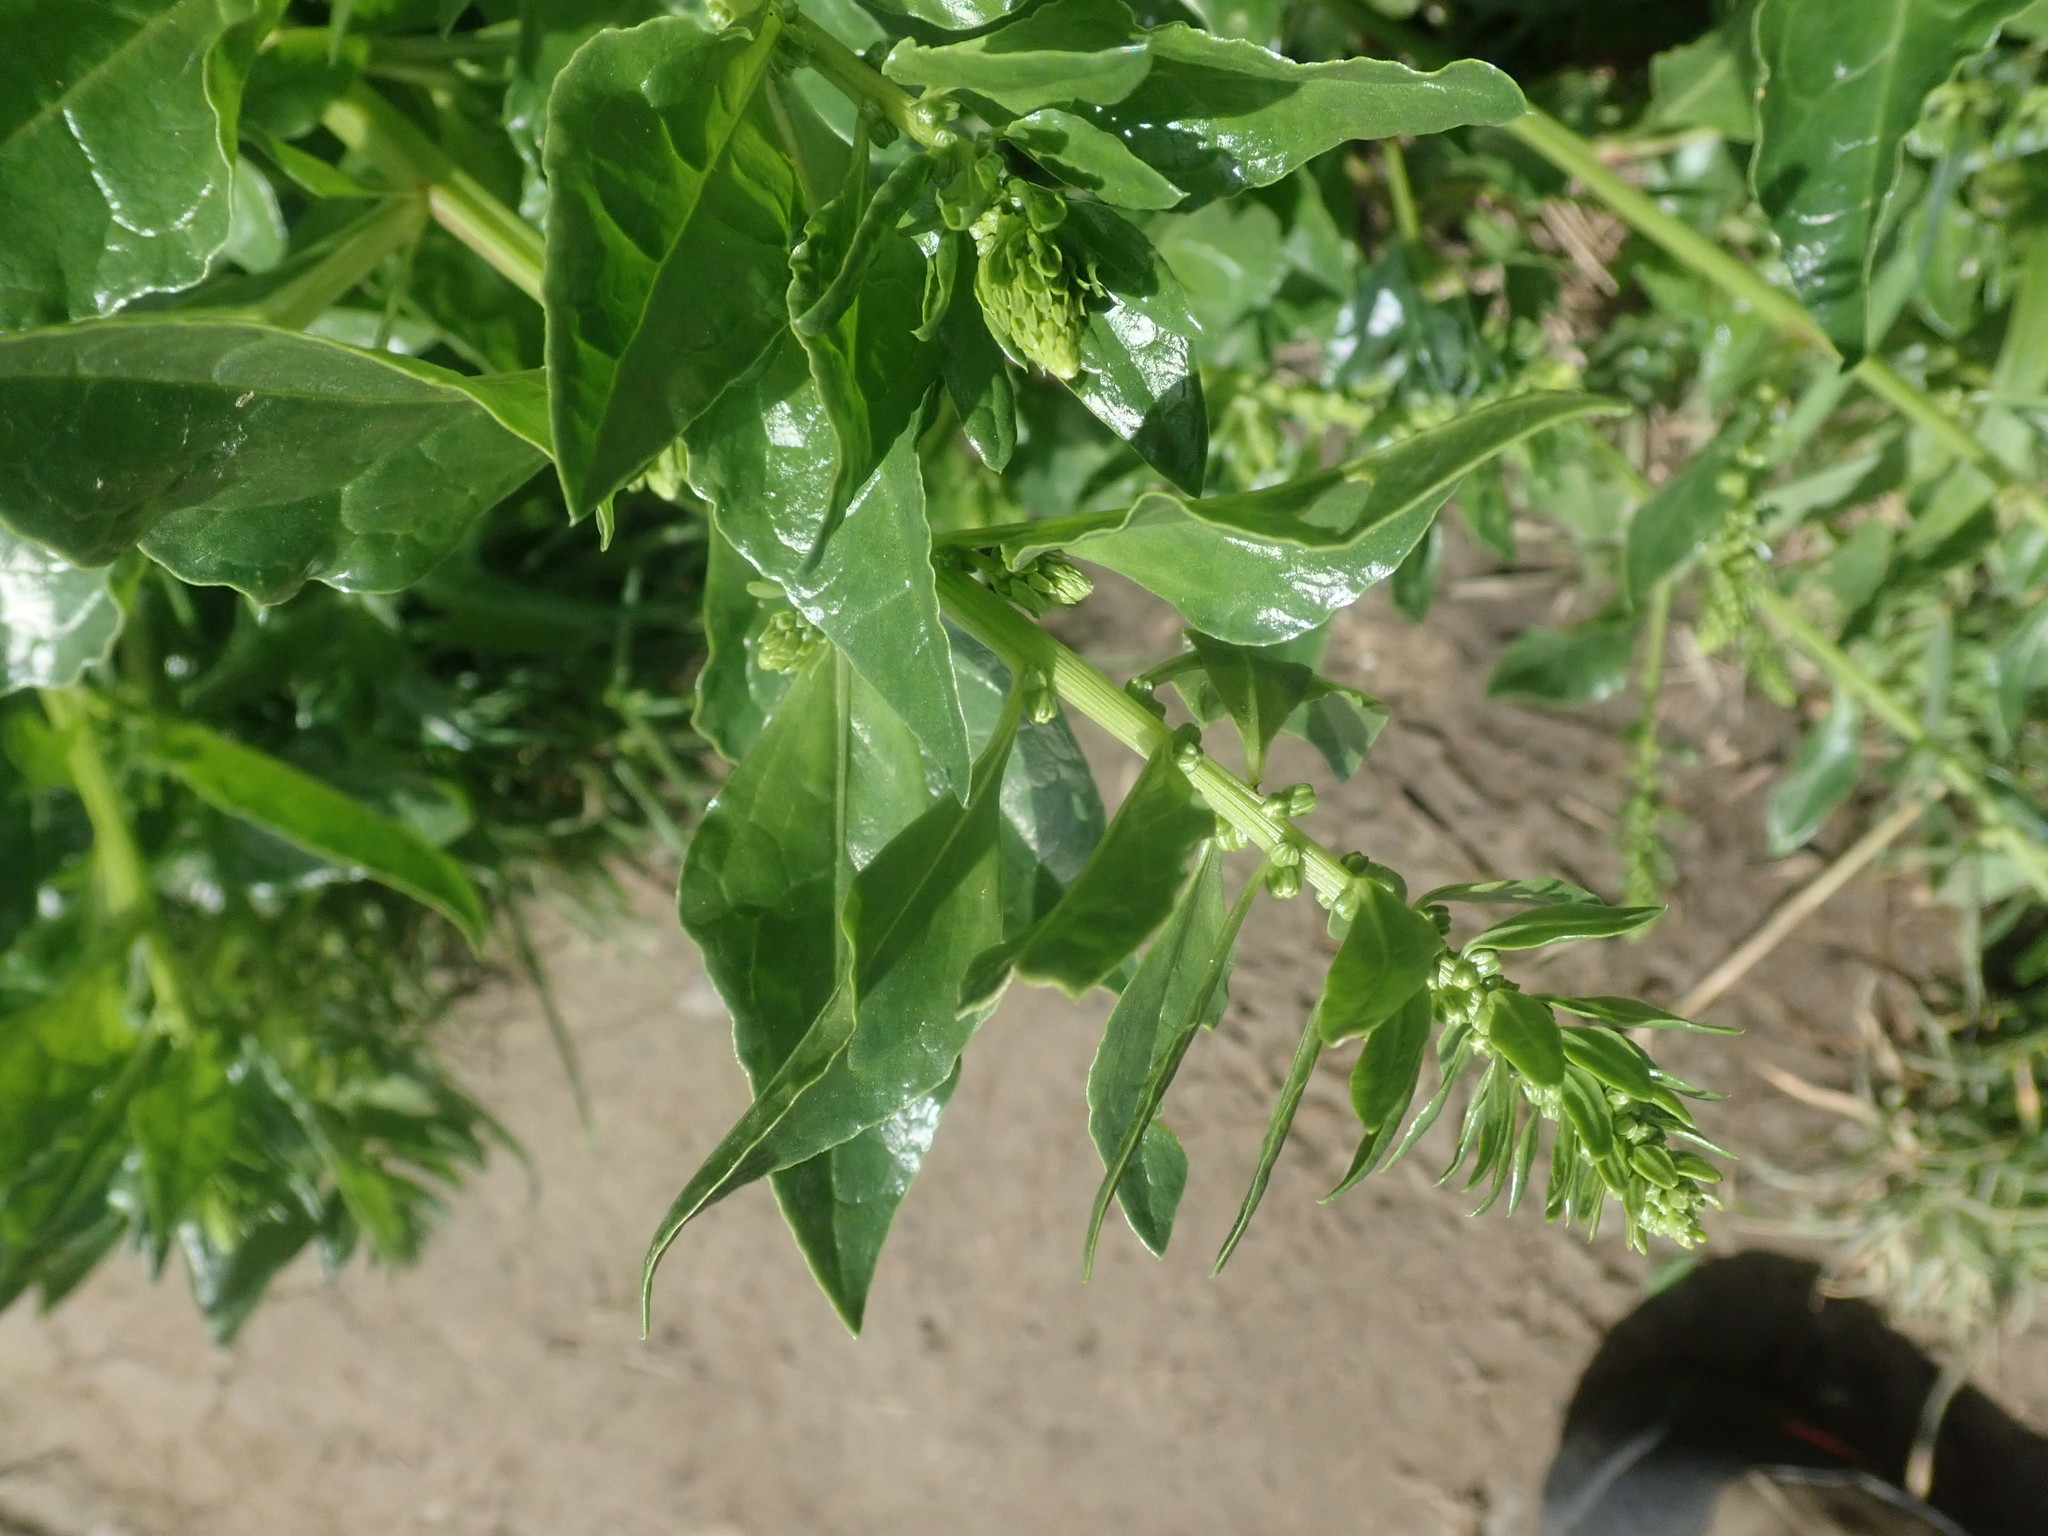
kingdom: Plantae
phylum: Tracheophyta
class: Magnoliopsida
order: Caryophyllales
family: Amaranthaceae
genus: Beta
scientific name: Beta vulgaris
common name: Beet
